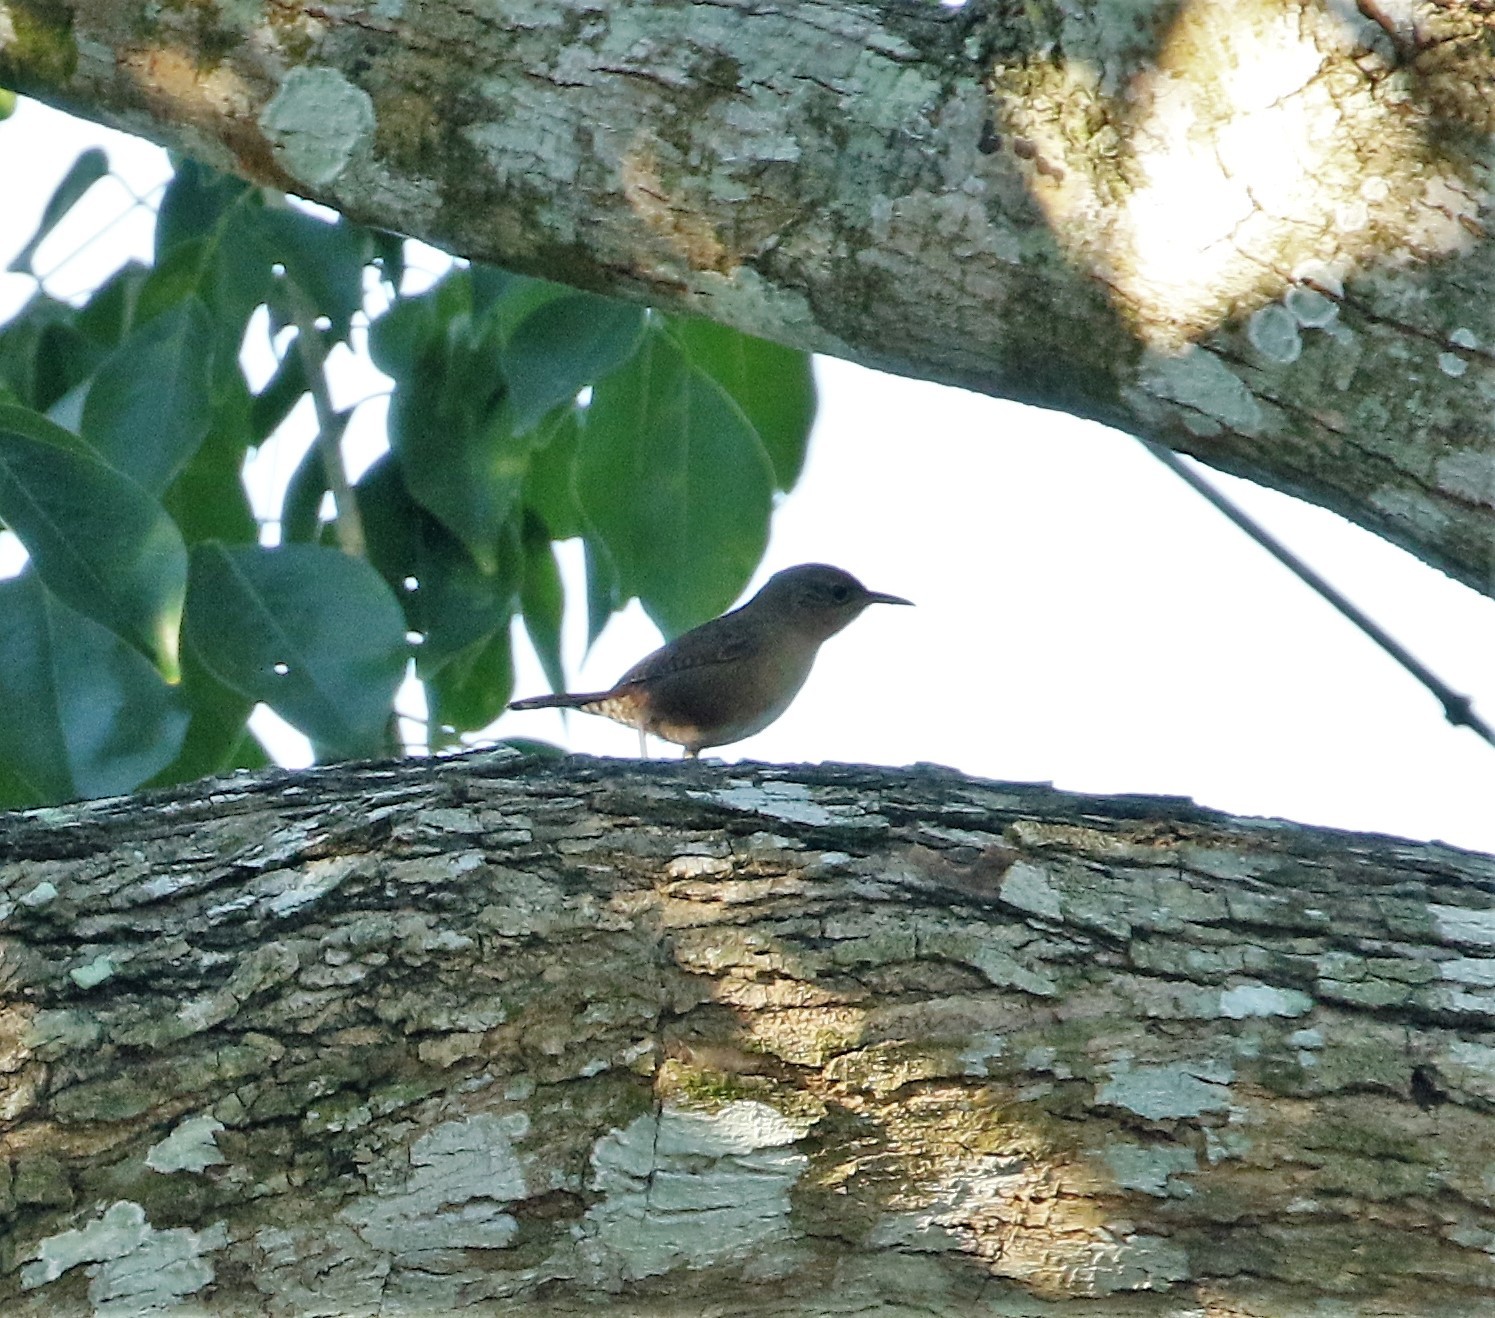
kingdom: Animalia
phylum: Chordata
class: Aves
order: Passeriformes
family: Troglodytidae
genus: Troglodytes
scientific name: Troglodytes aedon
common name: House wren
